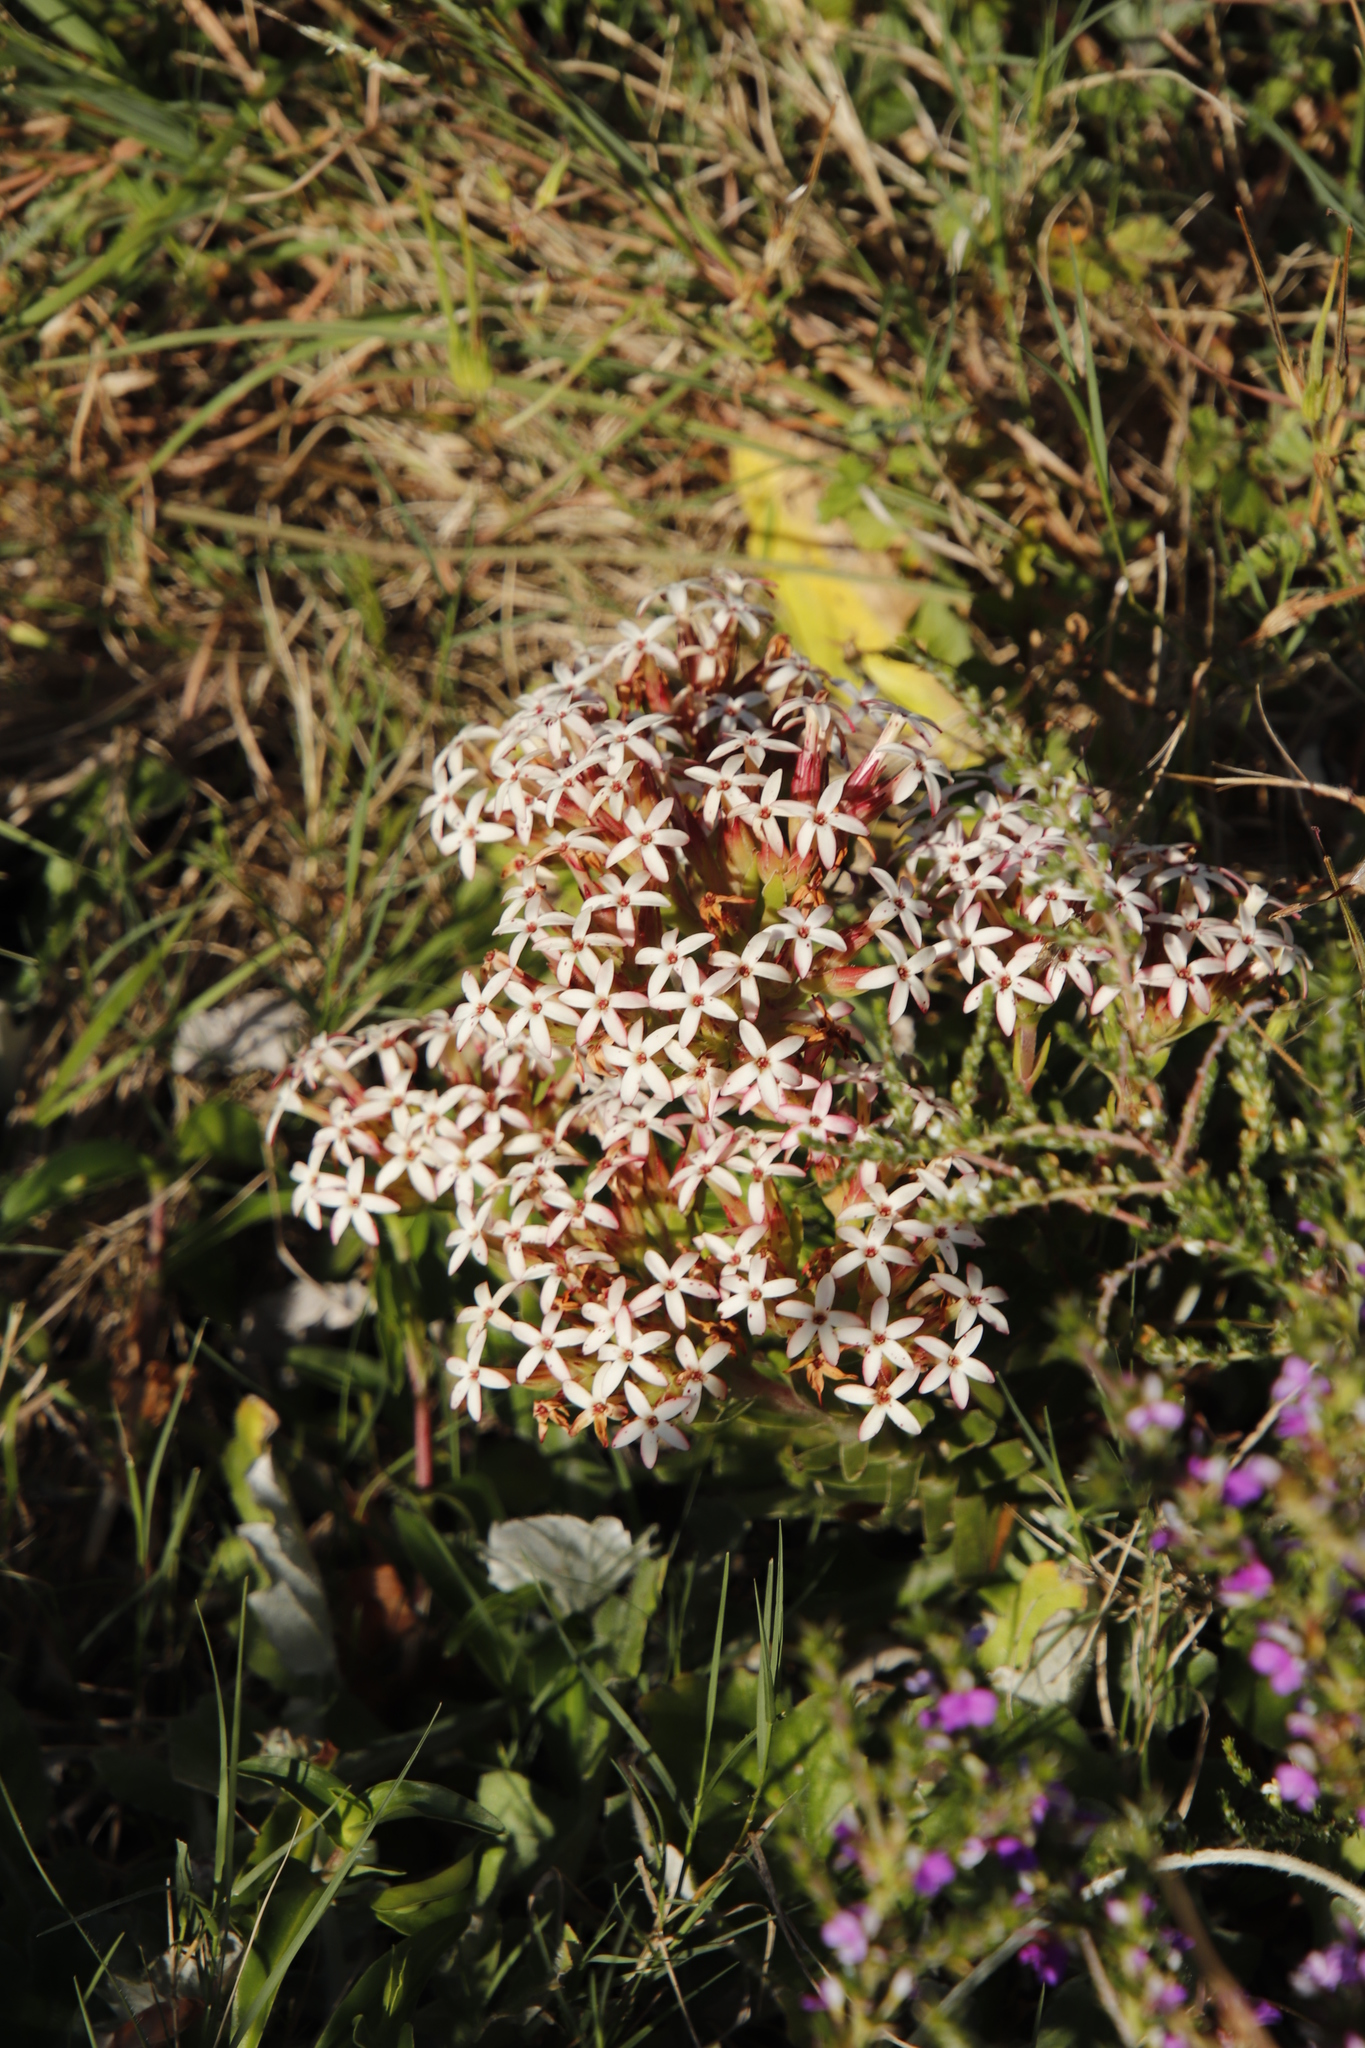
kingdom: Plantae
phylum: Tracheophyta
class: Magnoliopsida
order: Saxifragales
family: Crassulaceae
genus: Crassula
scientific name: Crassula fascicularis
